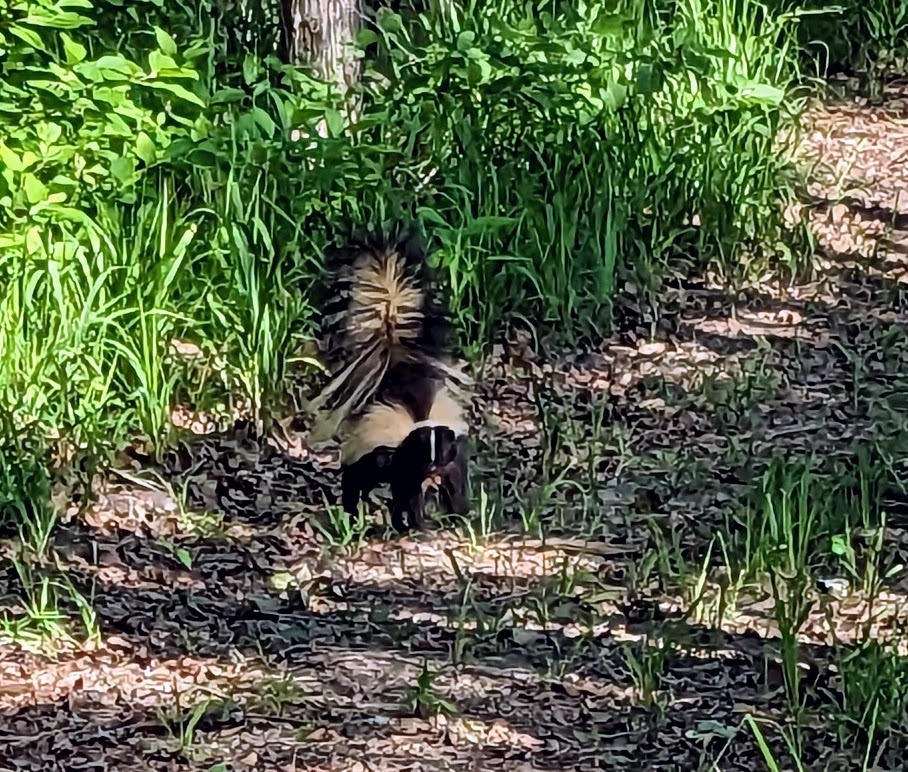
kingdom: Animalia
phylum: Chordata
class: Mammalia
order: Carnivora
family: Mephitidae
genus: Mephitis
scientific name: Mephitis mephitis
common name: Striped skunk
